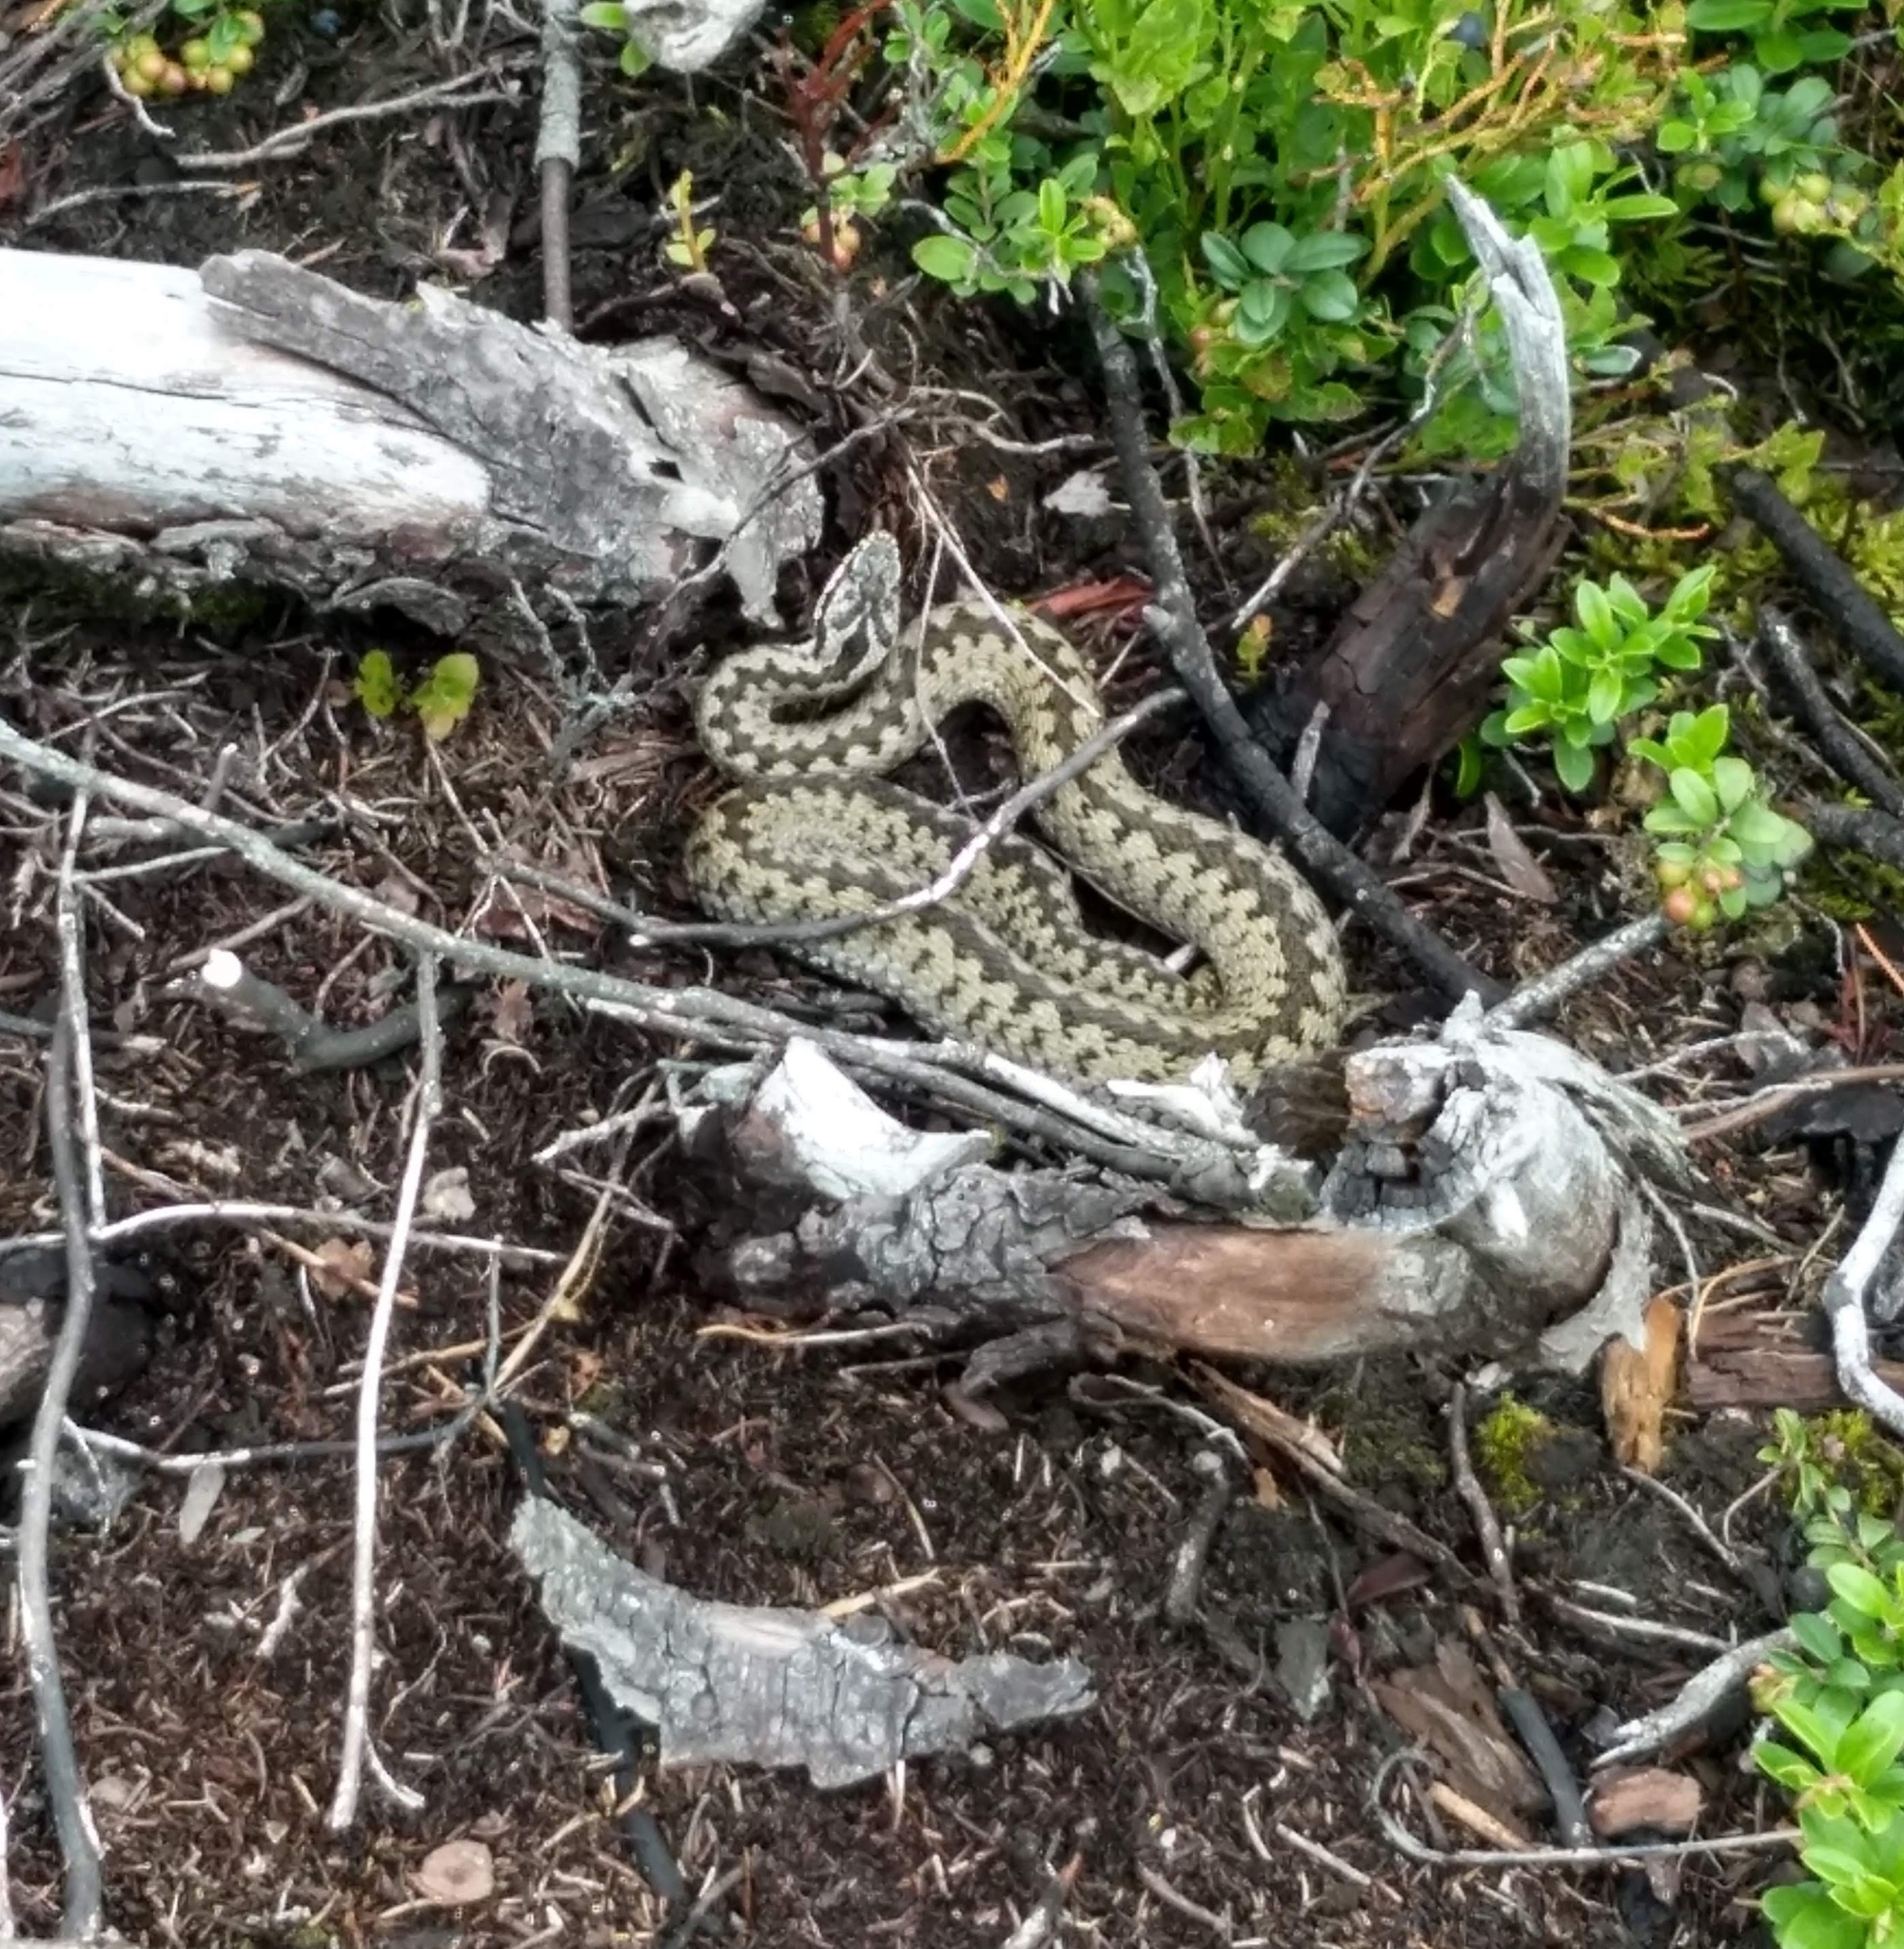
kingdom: Animalia
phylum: Chordata
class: Squamata
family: Viperidae
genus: Vipera
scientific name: Vipera berus
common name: Adder
